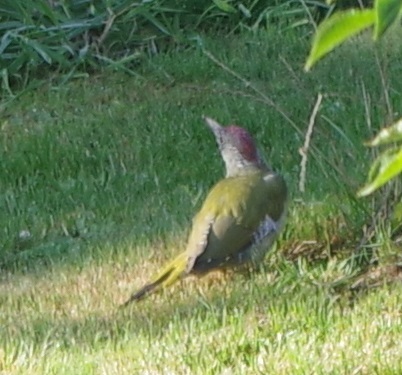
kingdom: Animalia
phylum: Chordata
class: Aves
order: Piciformes
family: Picidae
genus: Picus
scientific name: Picus viridis
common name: European green woodpecker
